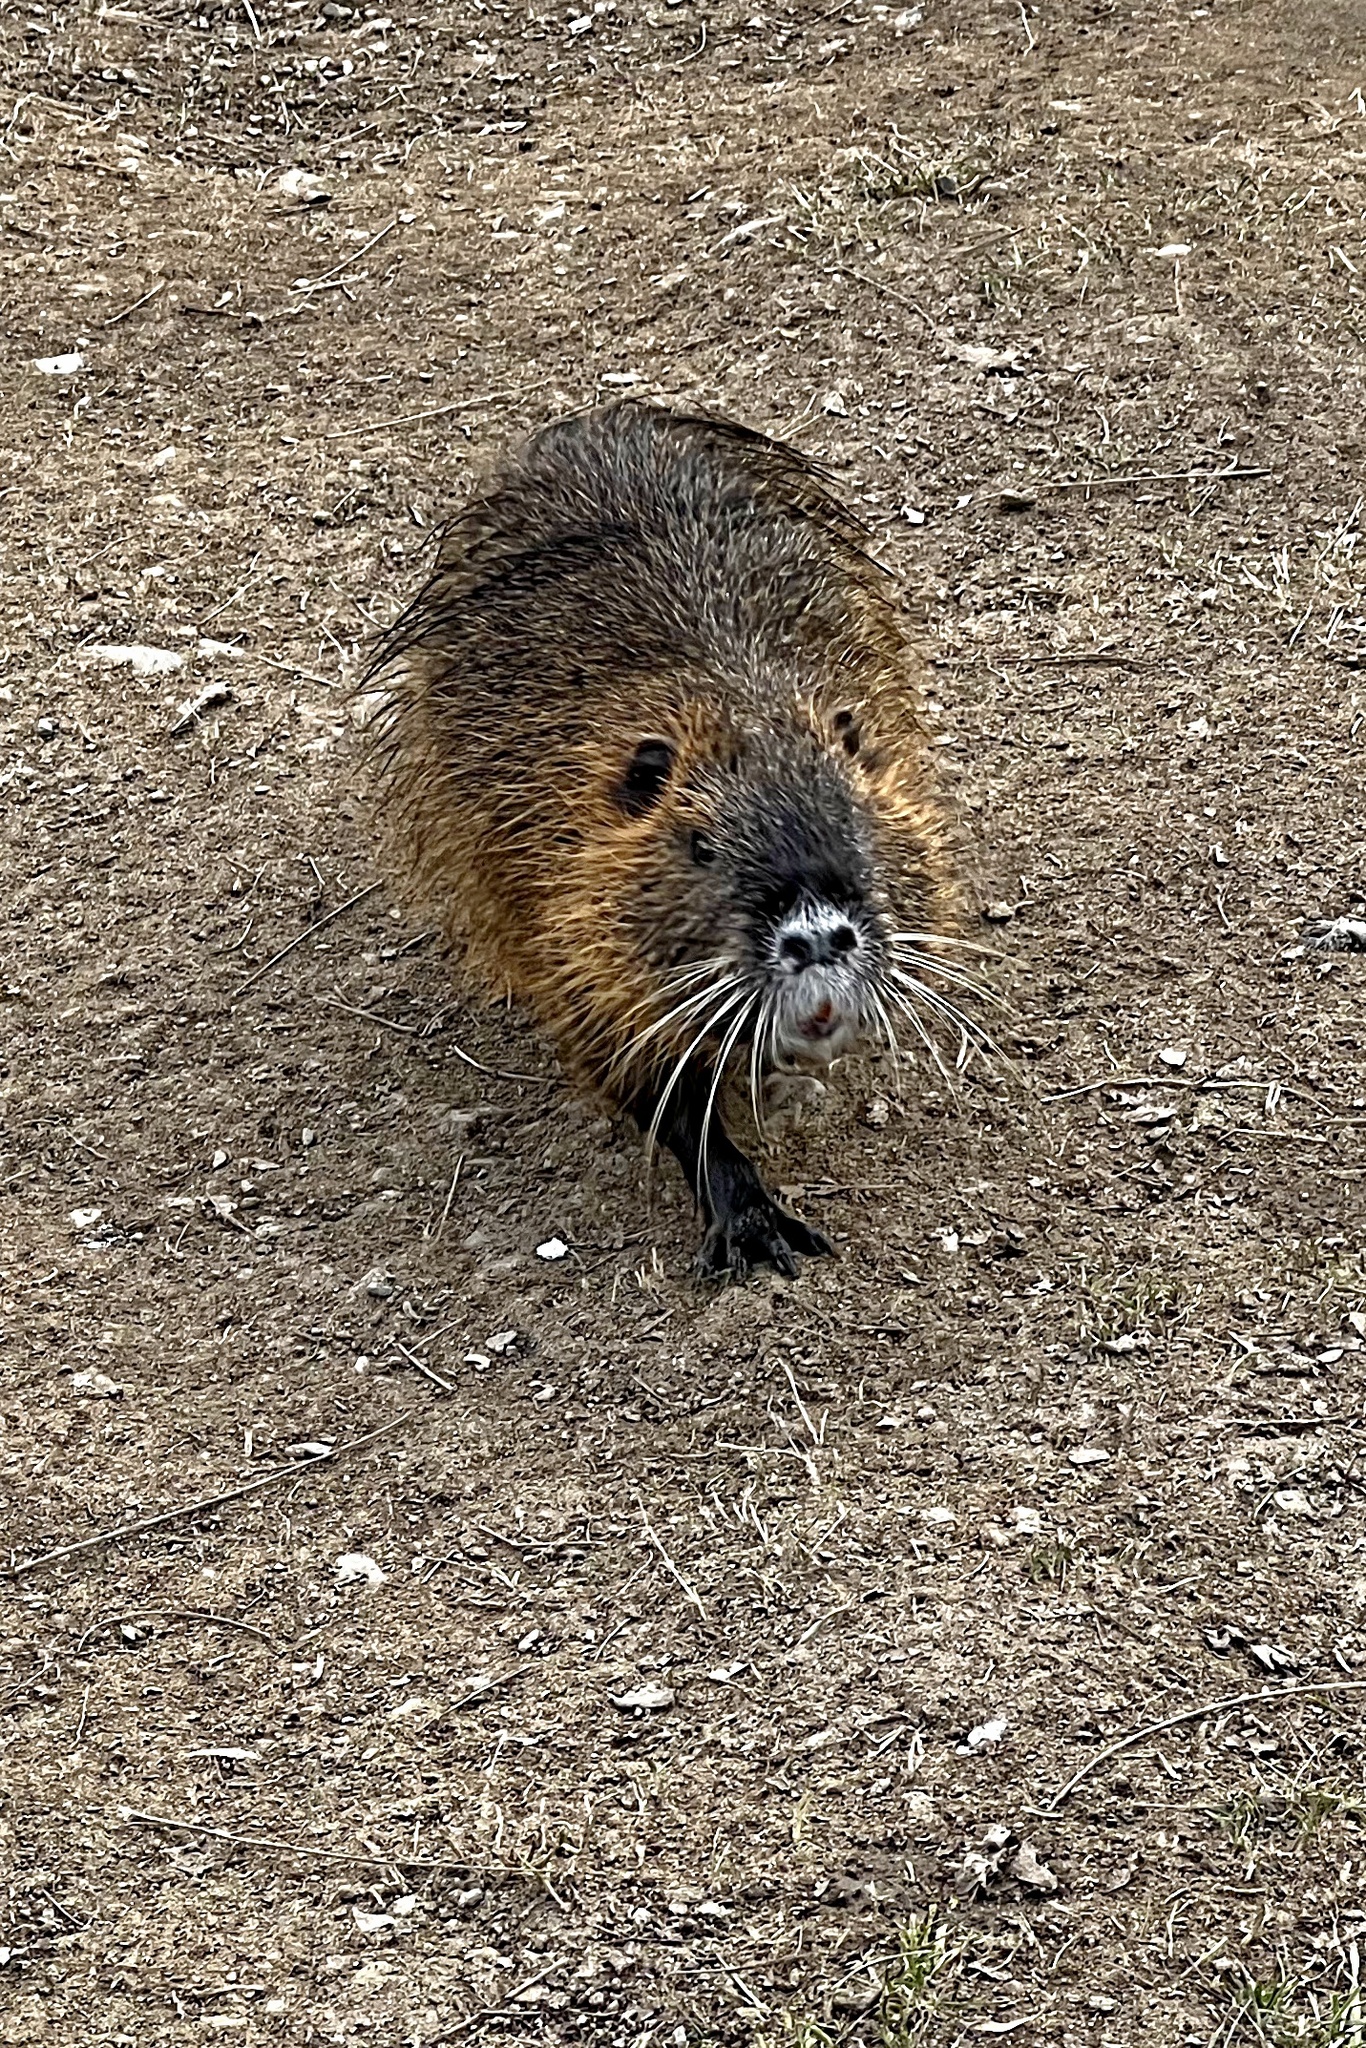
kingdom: Animalia
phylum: Chordata
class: Mammalia
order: Rodentia
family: Myocastoridae
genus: Myocastor
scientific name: Myocastor coypus
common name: Coypu
